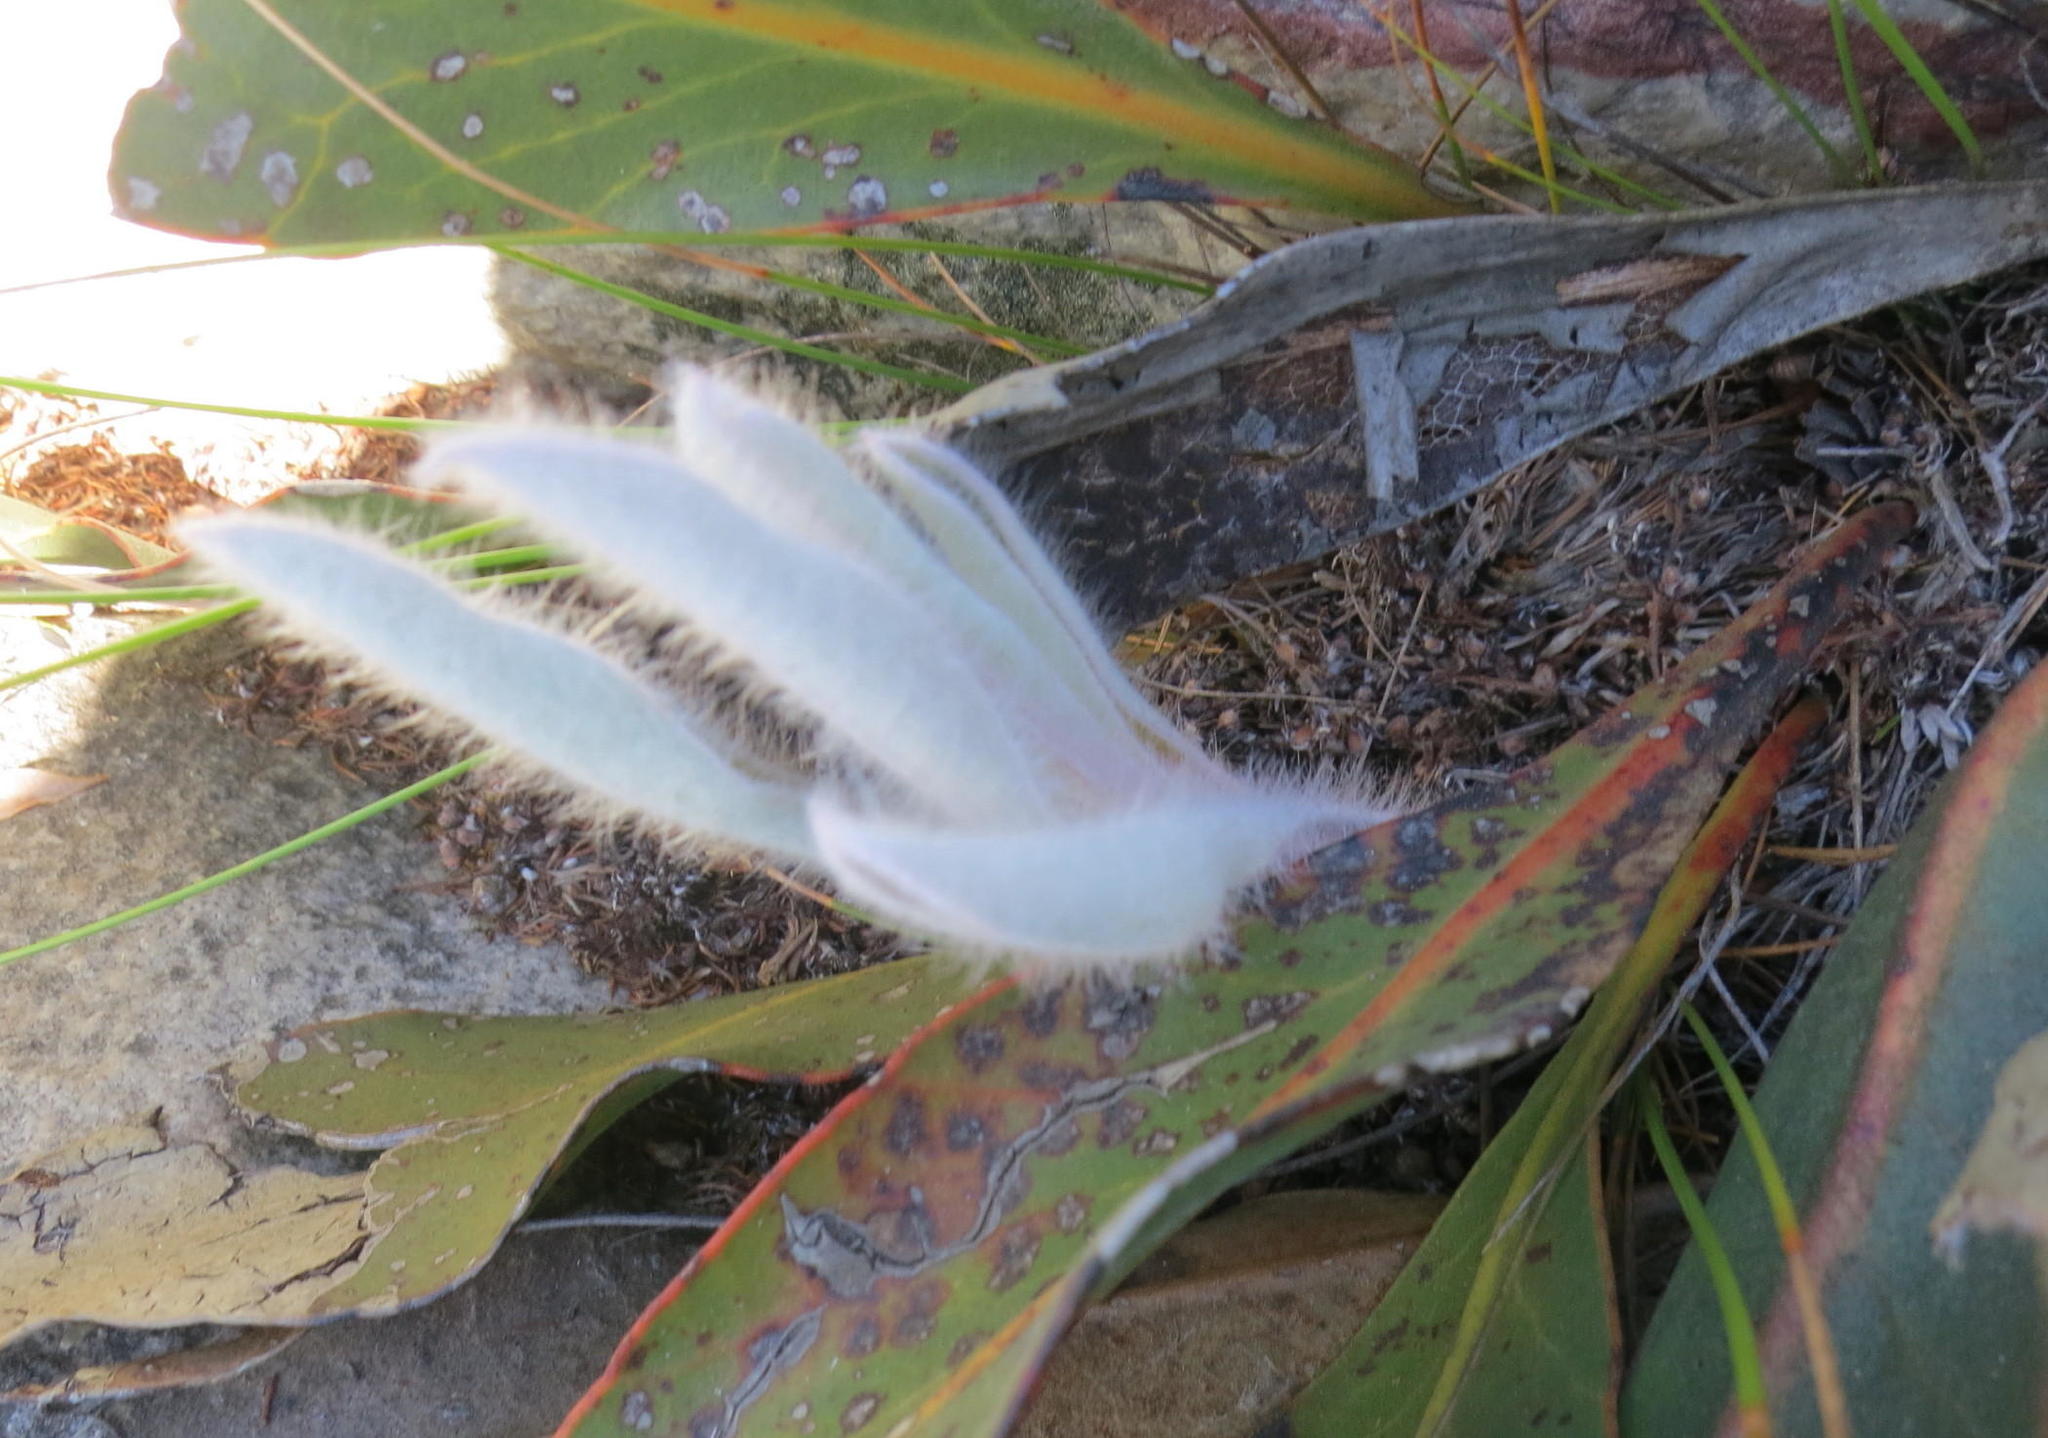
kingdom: Plantae
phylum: Tracheophyta
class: Magnoliopsida
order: Proteales
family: Proteaceae
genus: Protea
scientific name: Protea pruinosa
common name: Frosted sugarbush
